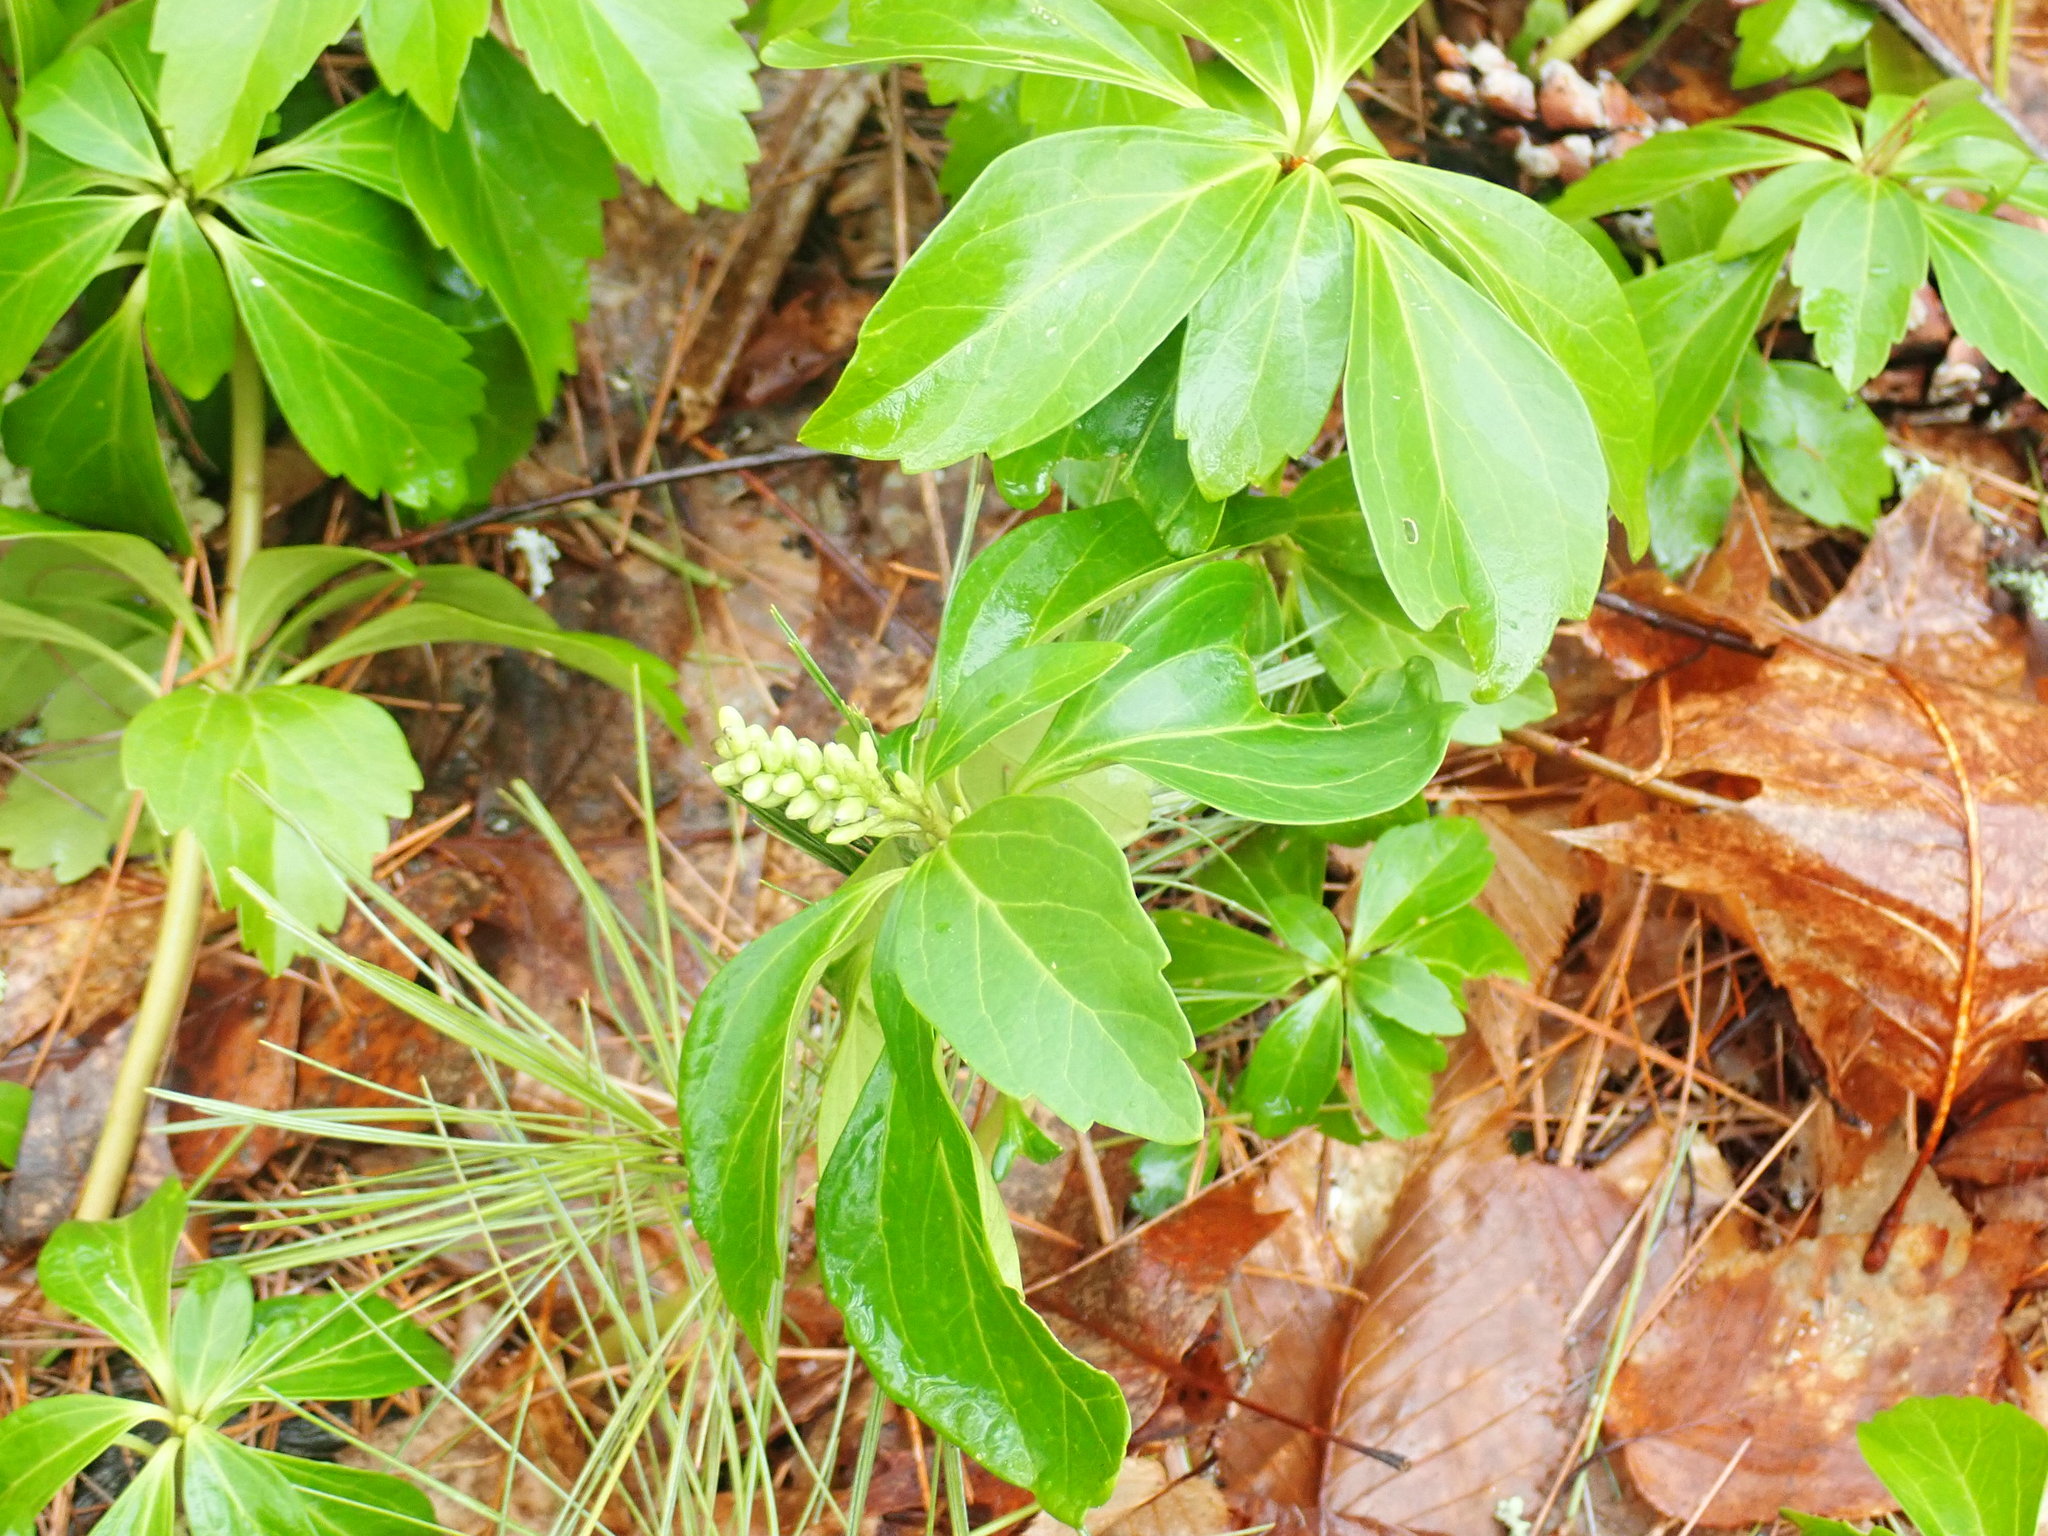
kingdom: Plantae
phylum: Tracheophyta
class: Magnoliopsida
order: Buxales
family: Buxaceae
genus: Pachysandra
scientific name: Pachysandra terminalis
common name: Japanese pachysandra
